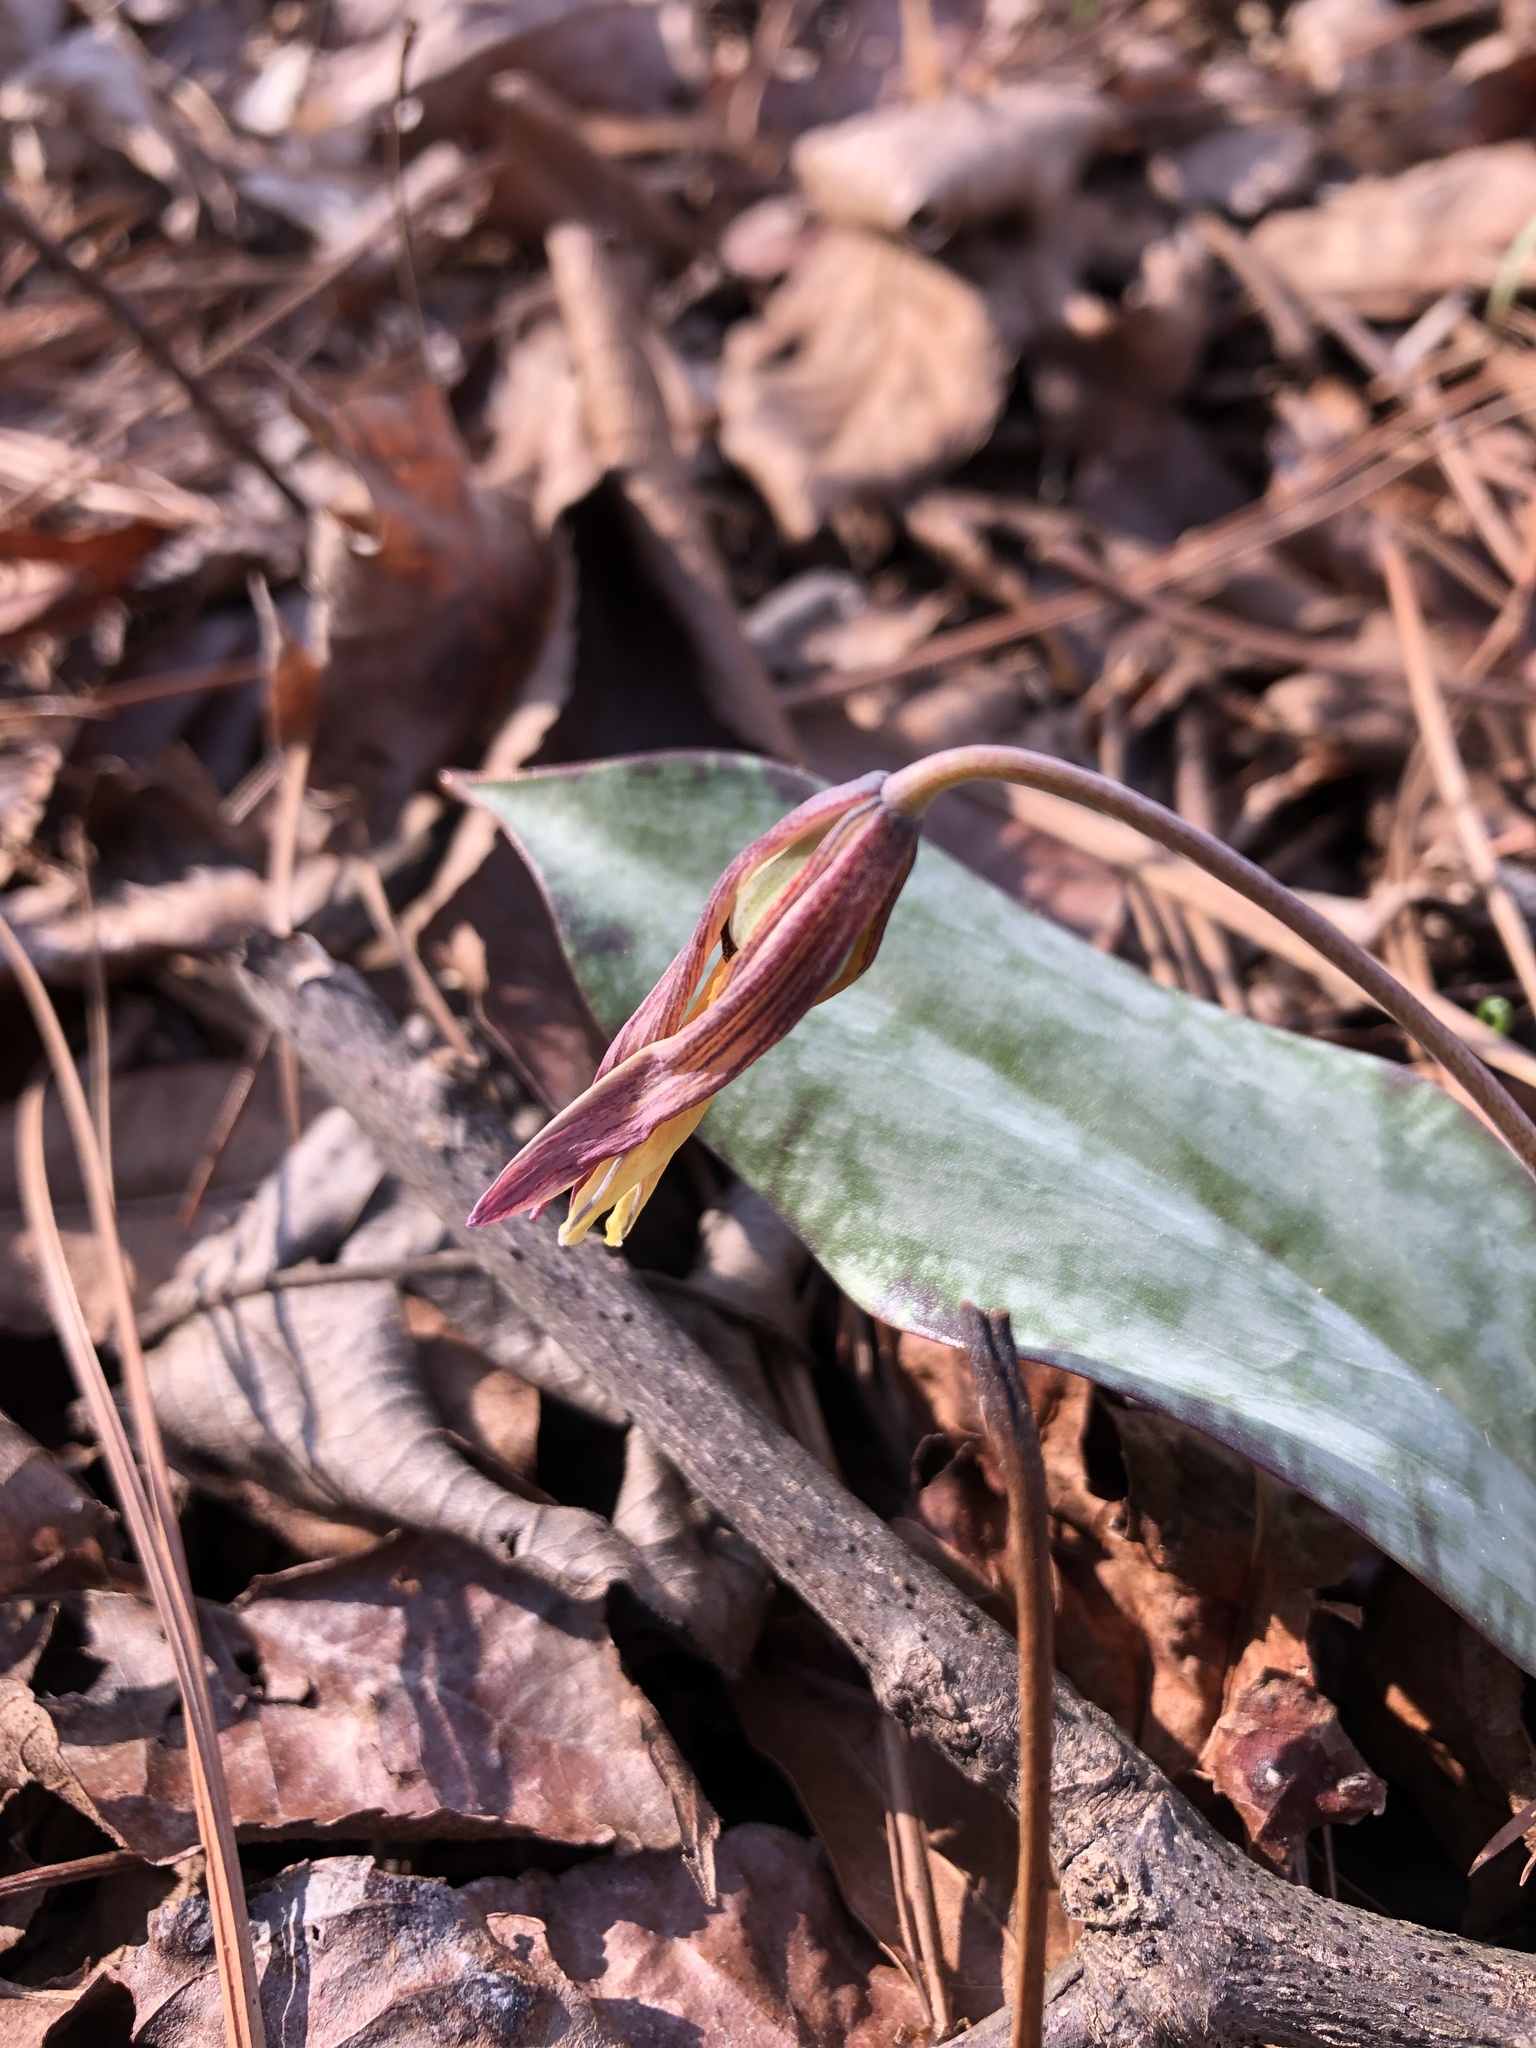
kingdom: Plantae
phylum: Tracheophyta
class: Liliopsida
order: Liliales
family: Liliaceae
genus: Erythronium
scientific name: Erythronium umbilicatum
